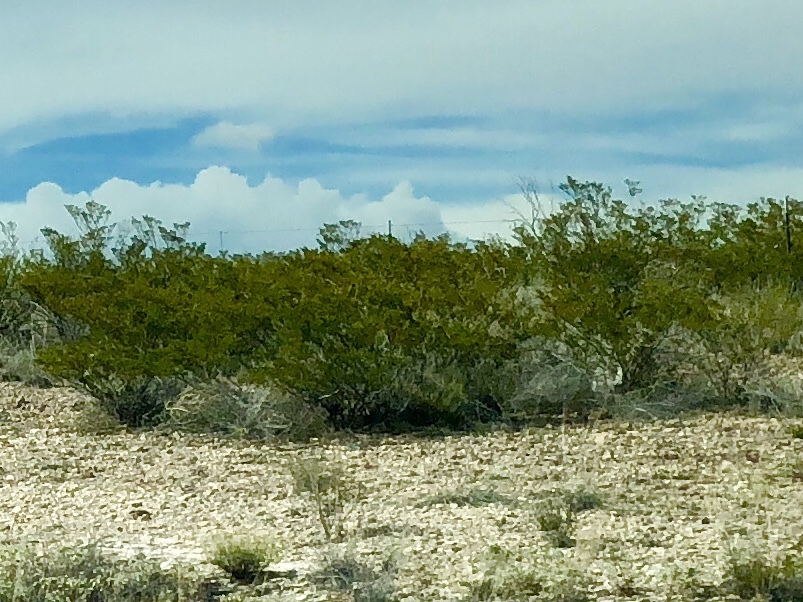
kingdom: Plantae
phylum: Tracheophyta
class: Magnoliopsida
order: Zygophyllales
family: Zygophyllaceae
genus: Larrea
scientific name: Larrea tridentata
